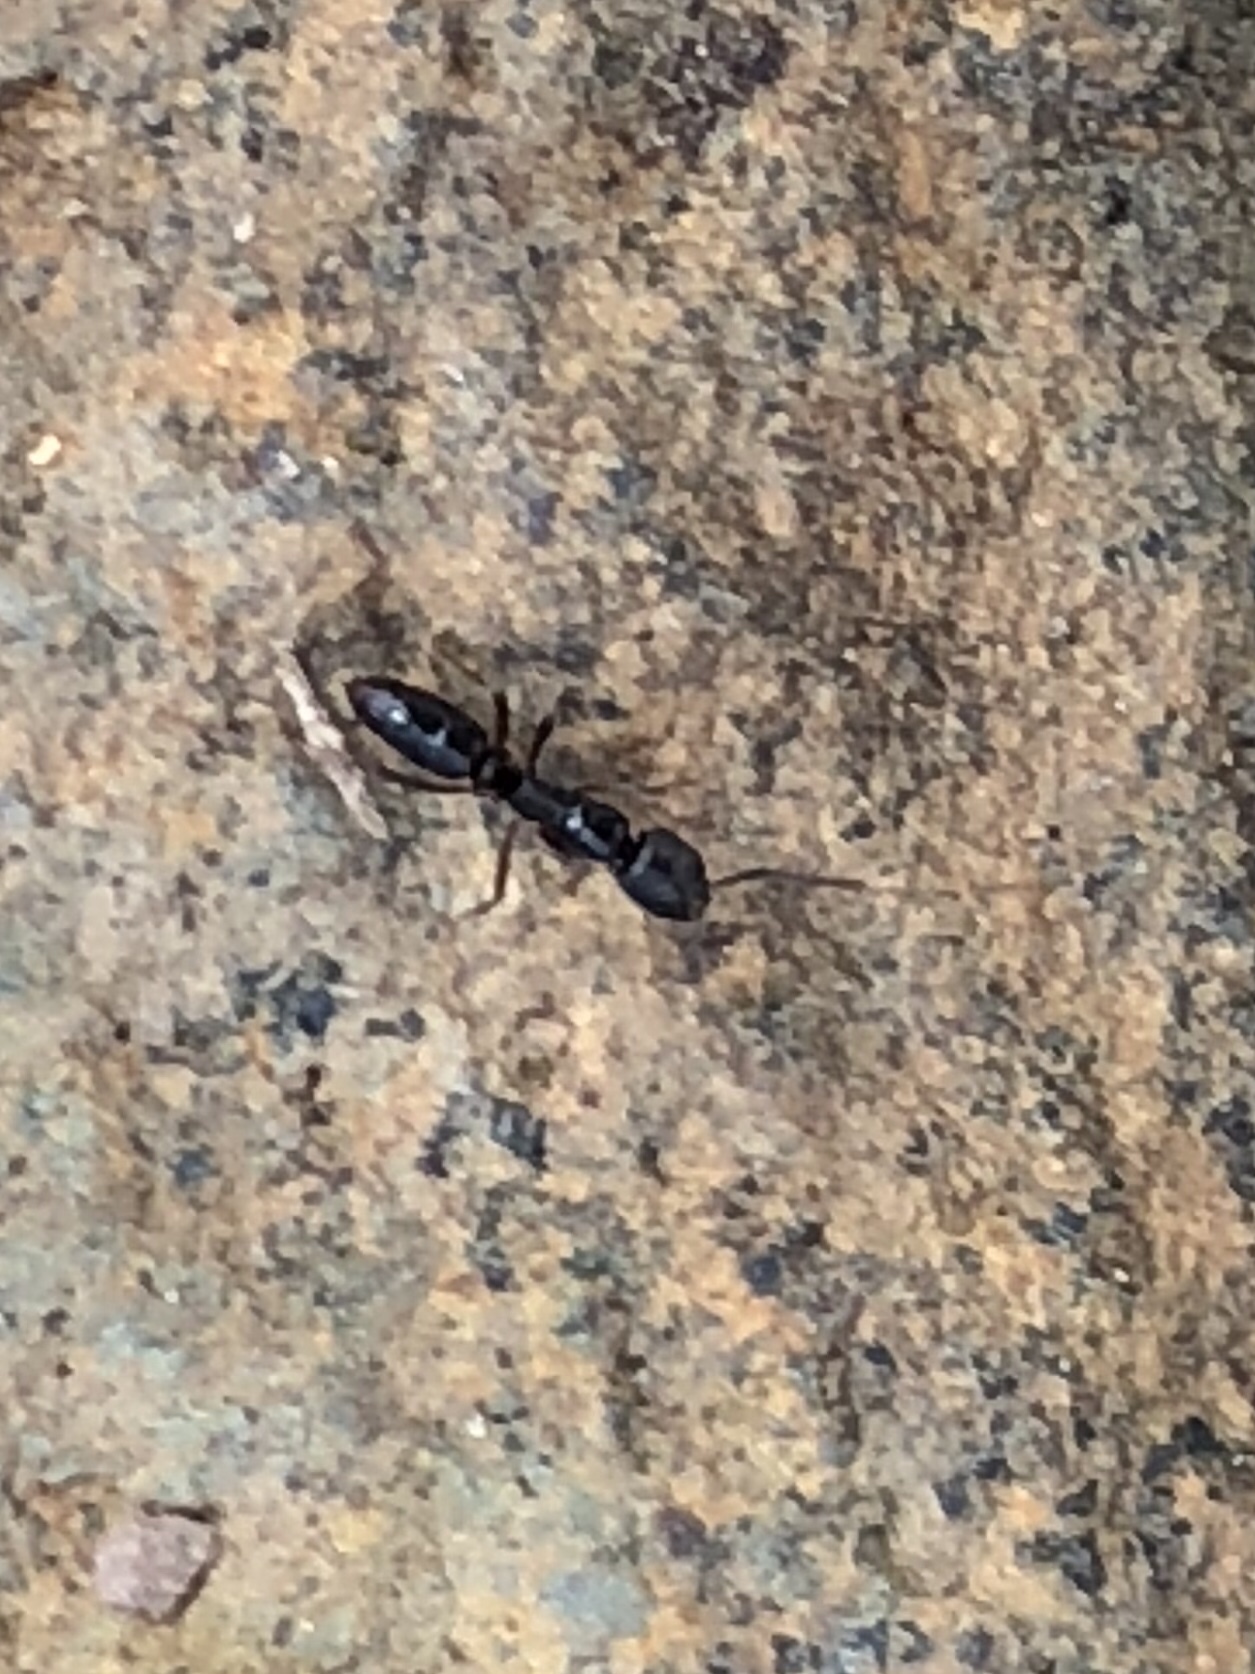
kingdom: Animalia
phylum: Arthropoda
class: Insecta
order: Hymenoptera
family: Formicidae
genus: Pachycondyla
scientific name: Pachycondyla chinensis
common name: Asian needle ant
